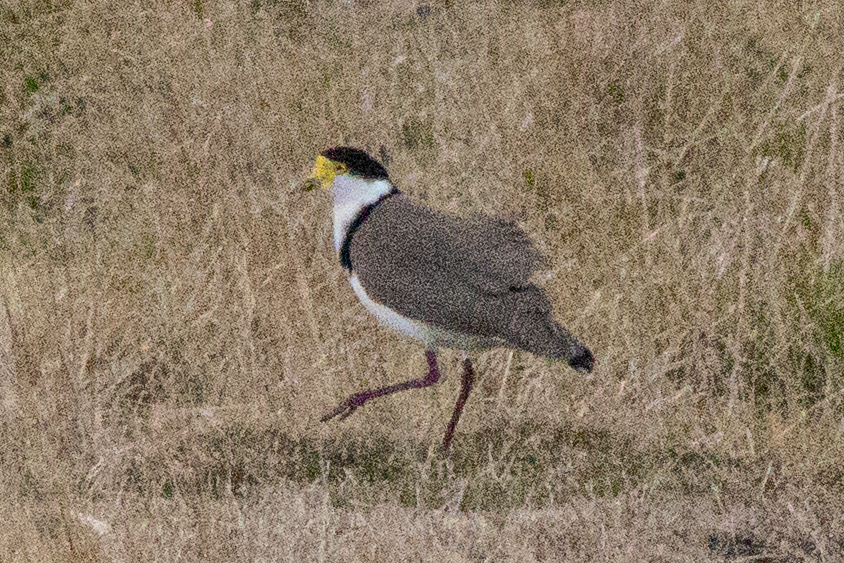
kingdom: Animalia
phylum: Chordata
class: Aves
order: Charadriiformes
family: Charadriidae
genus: Vanellus
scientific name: Vanellus miles
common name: Masked lapwing
